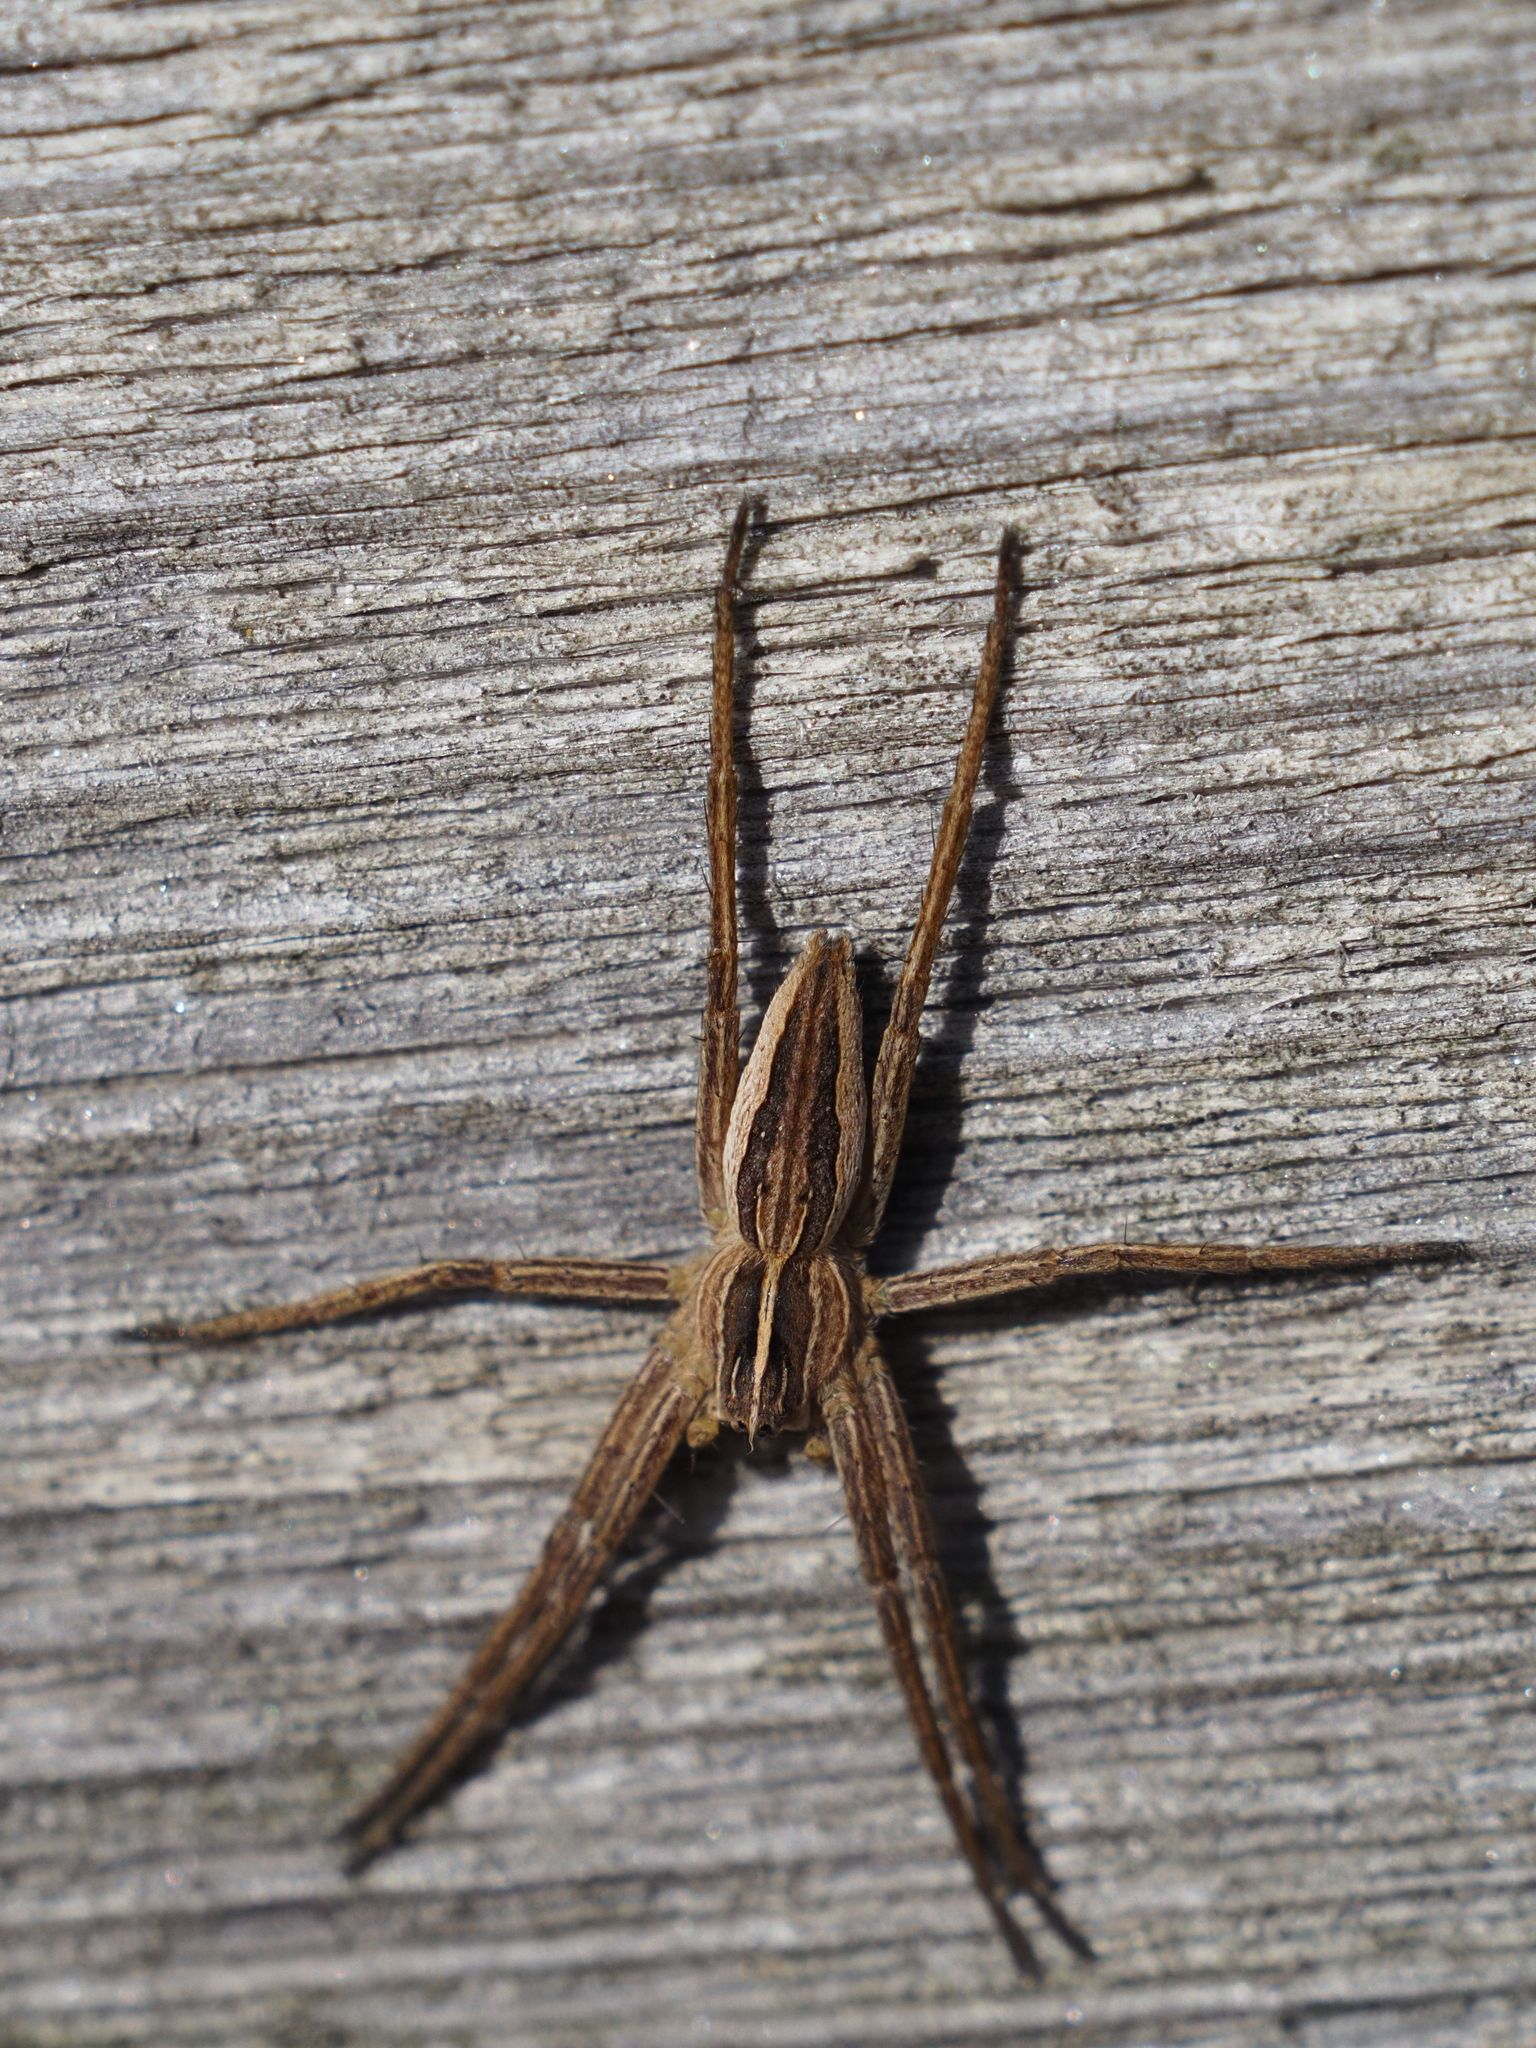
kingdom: Animalia
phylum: Arthropoda
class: Arachnida
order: Araneae
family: Pisauridae
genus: Pisaura
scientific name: Pisaura mirabilis
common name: Tent spider
